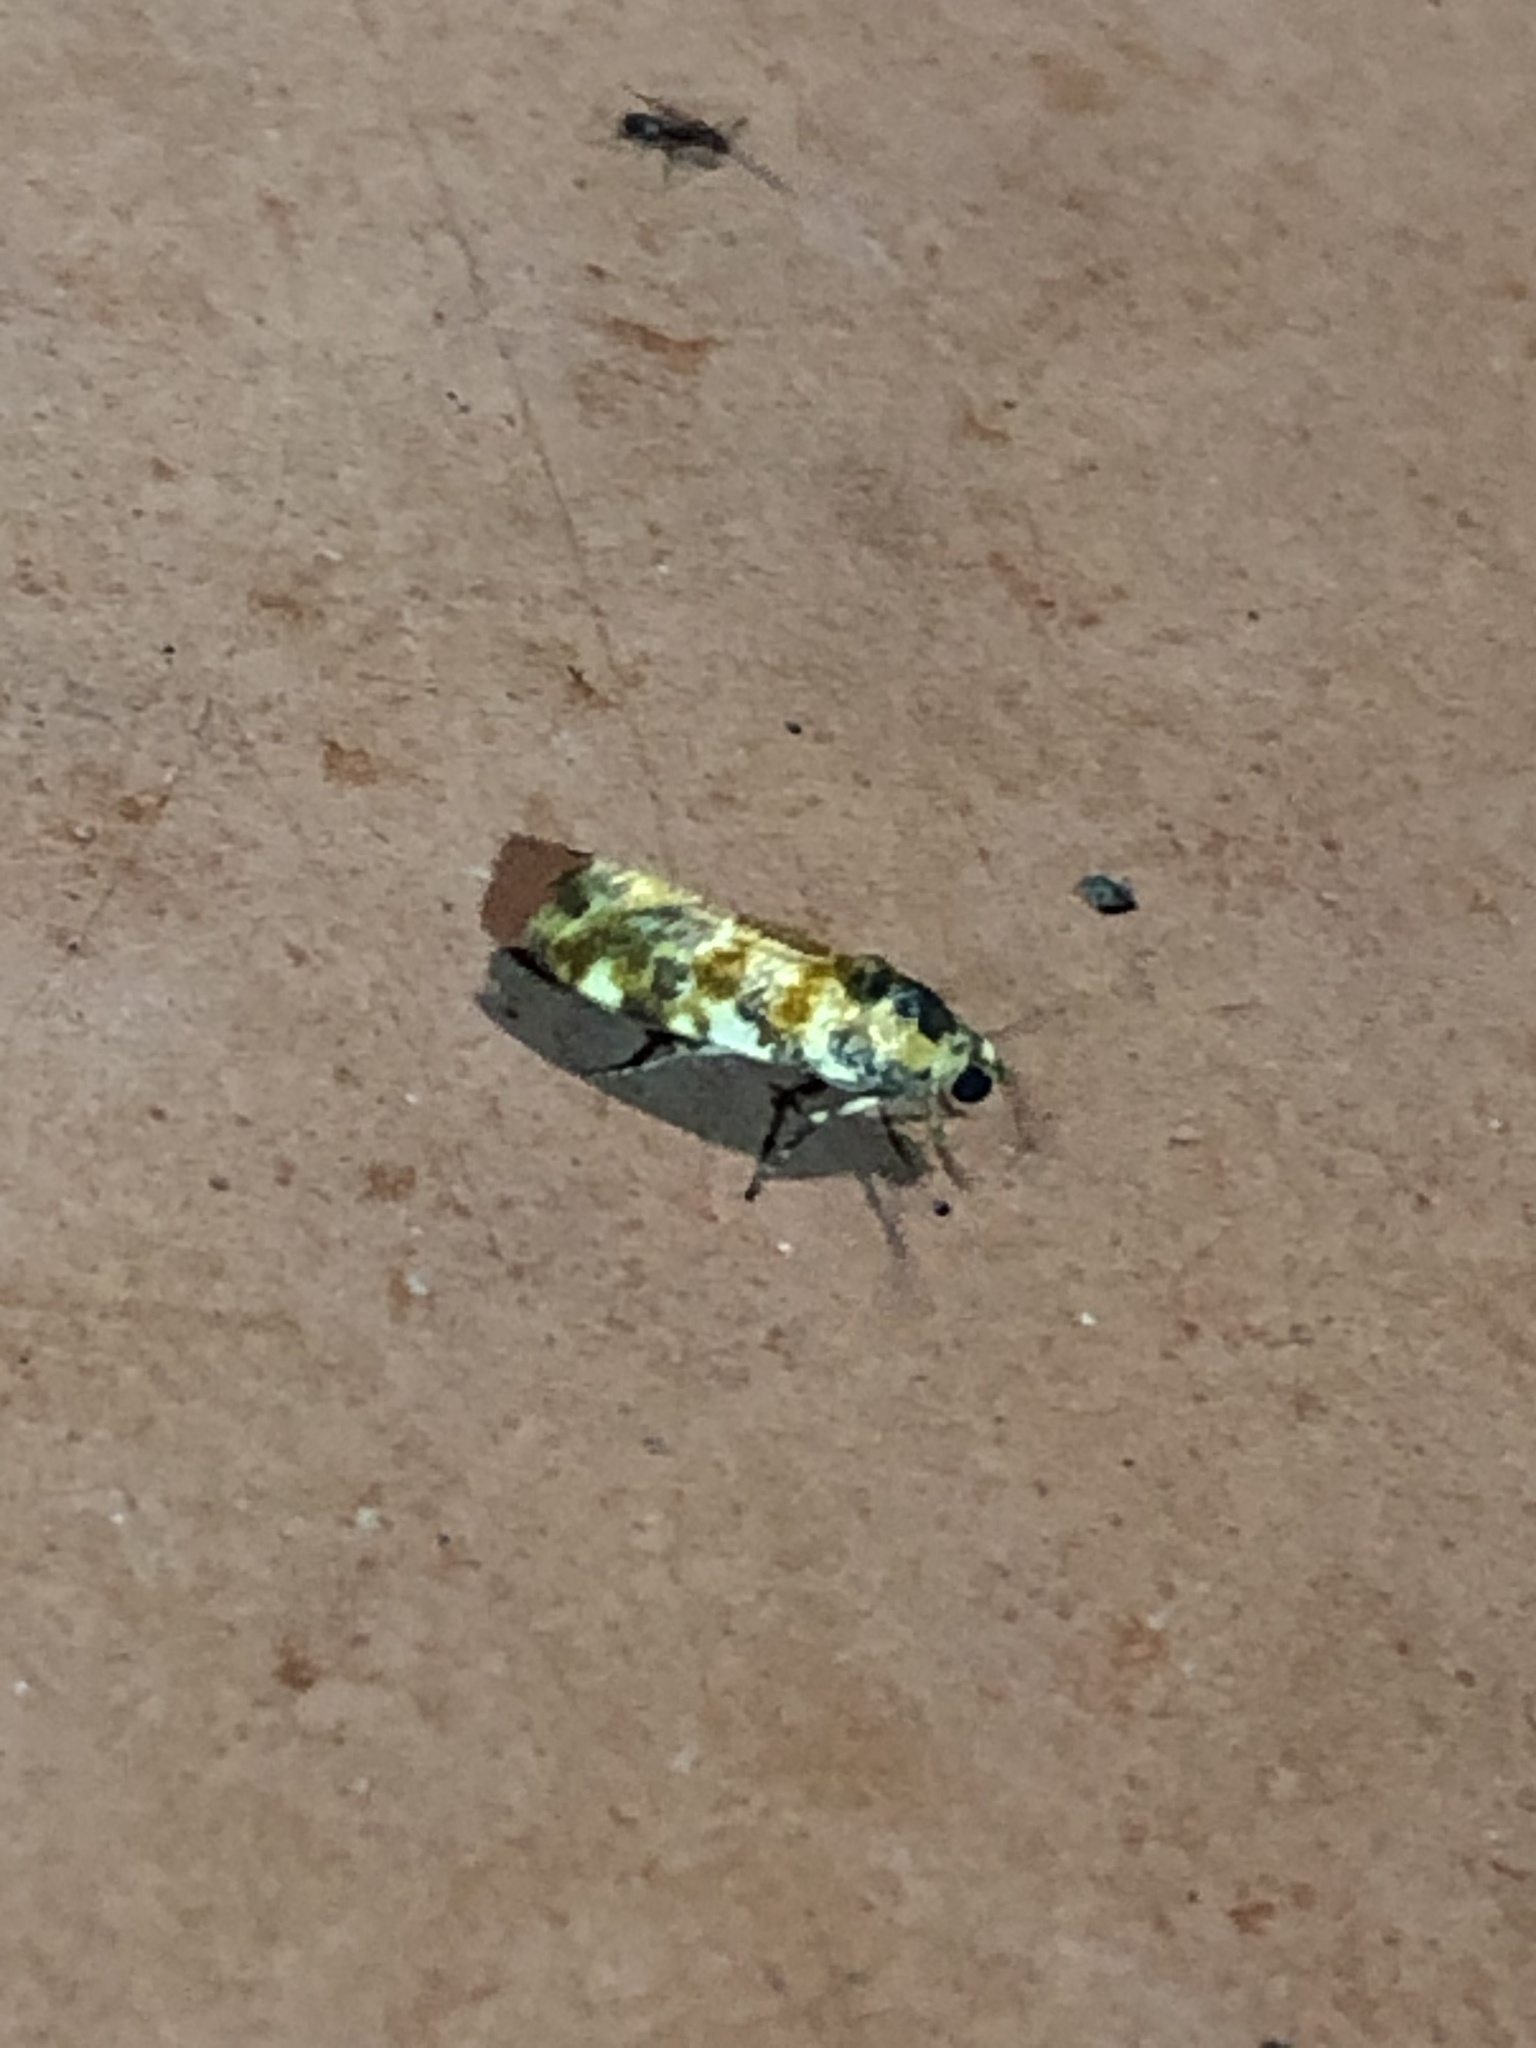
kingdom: Animalia
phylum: Arthropoda
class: Insecta
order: Lepidoptera
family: Noctuidae
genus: Spragueia
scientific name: Spragueia jaguaralis
